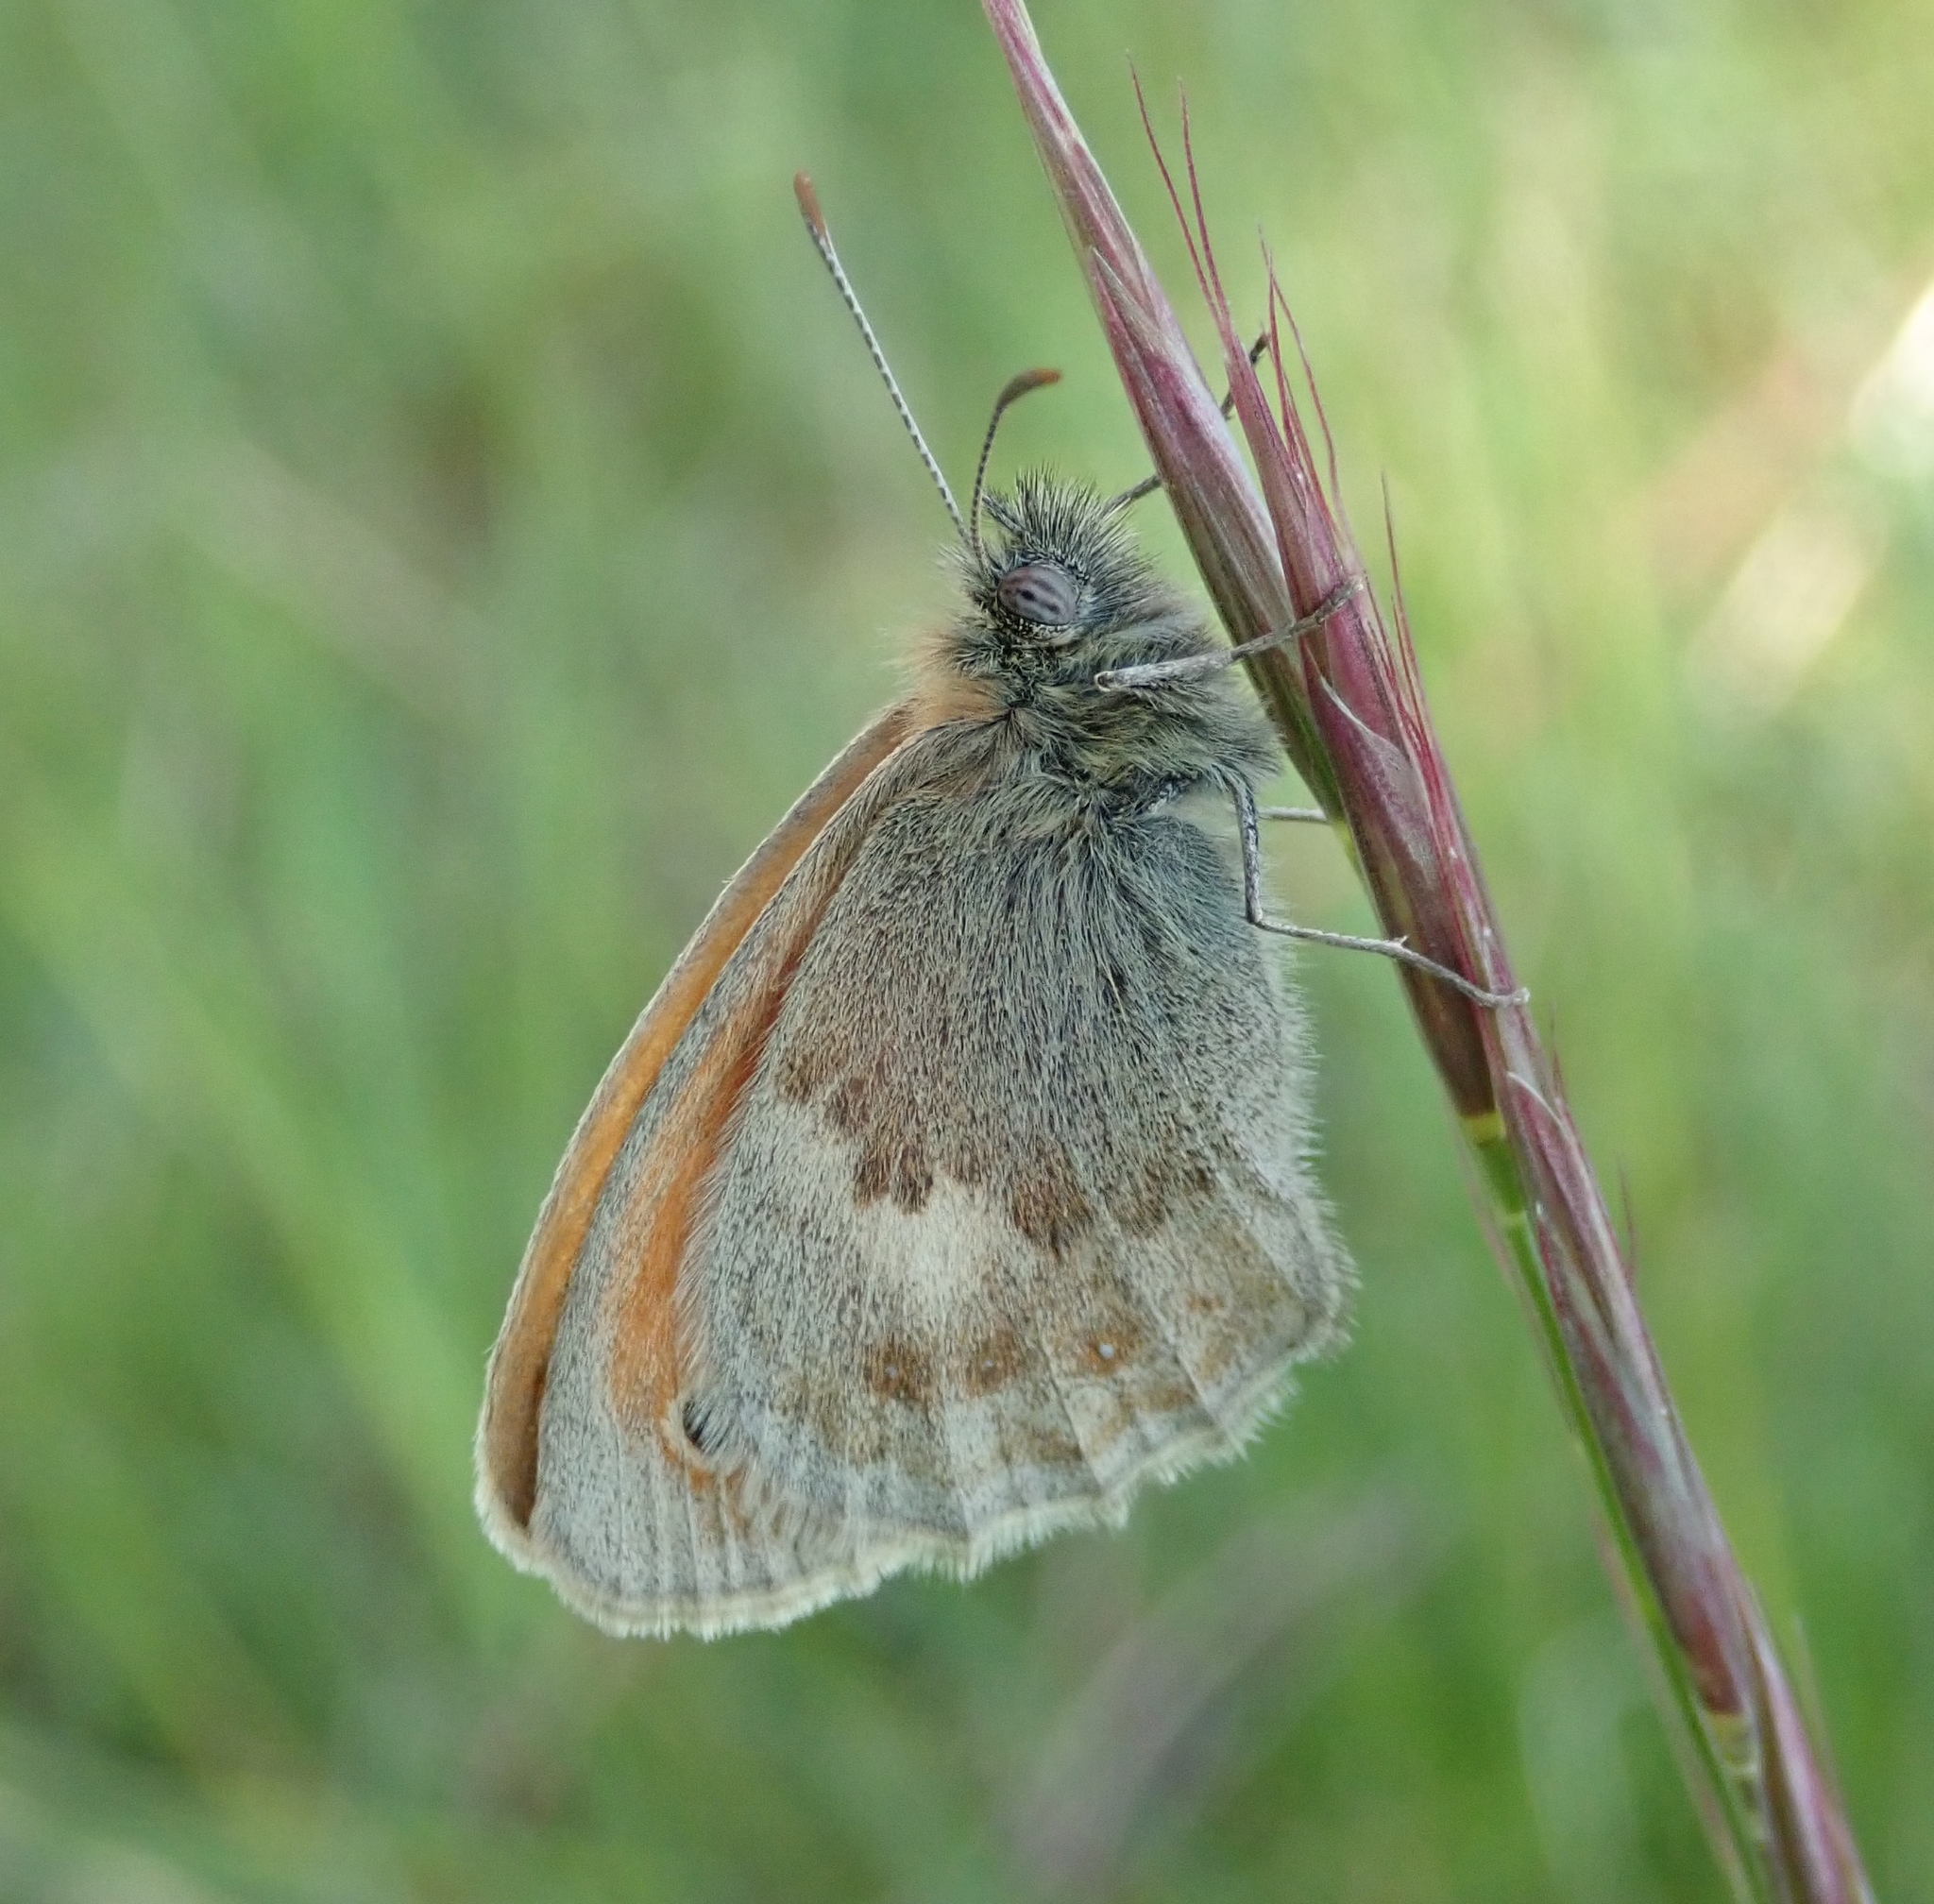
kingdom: Animalia
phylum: Arthropoda
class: Insecta
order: Lepidoptera
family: Nymphalidae
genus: Coenonympha
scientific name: Coenonympha pamphilus
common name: Small heath
